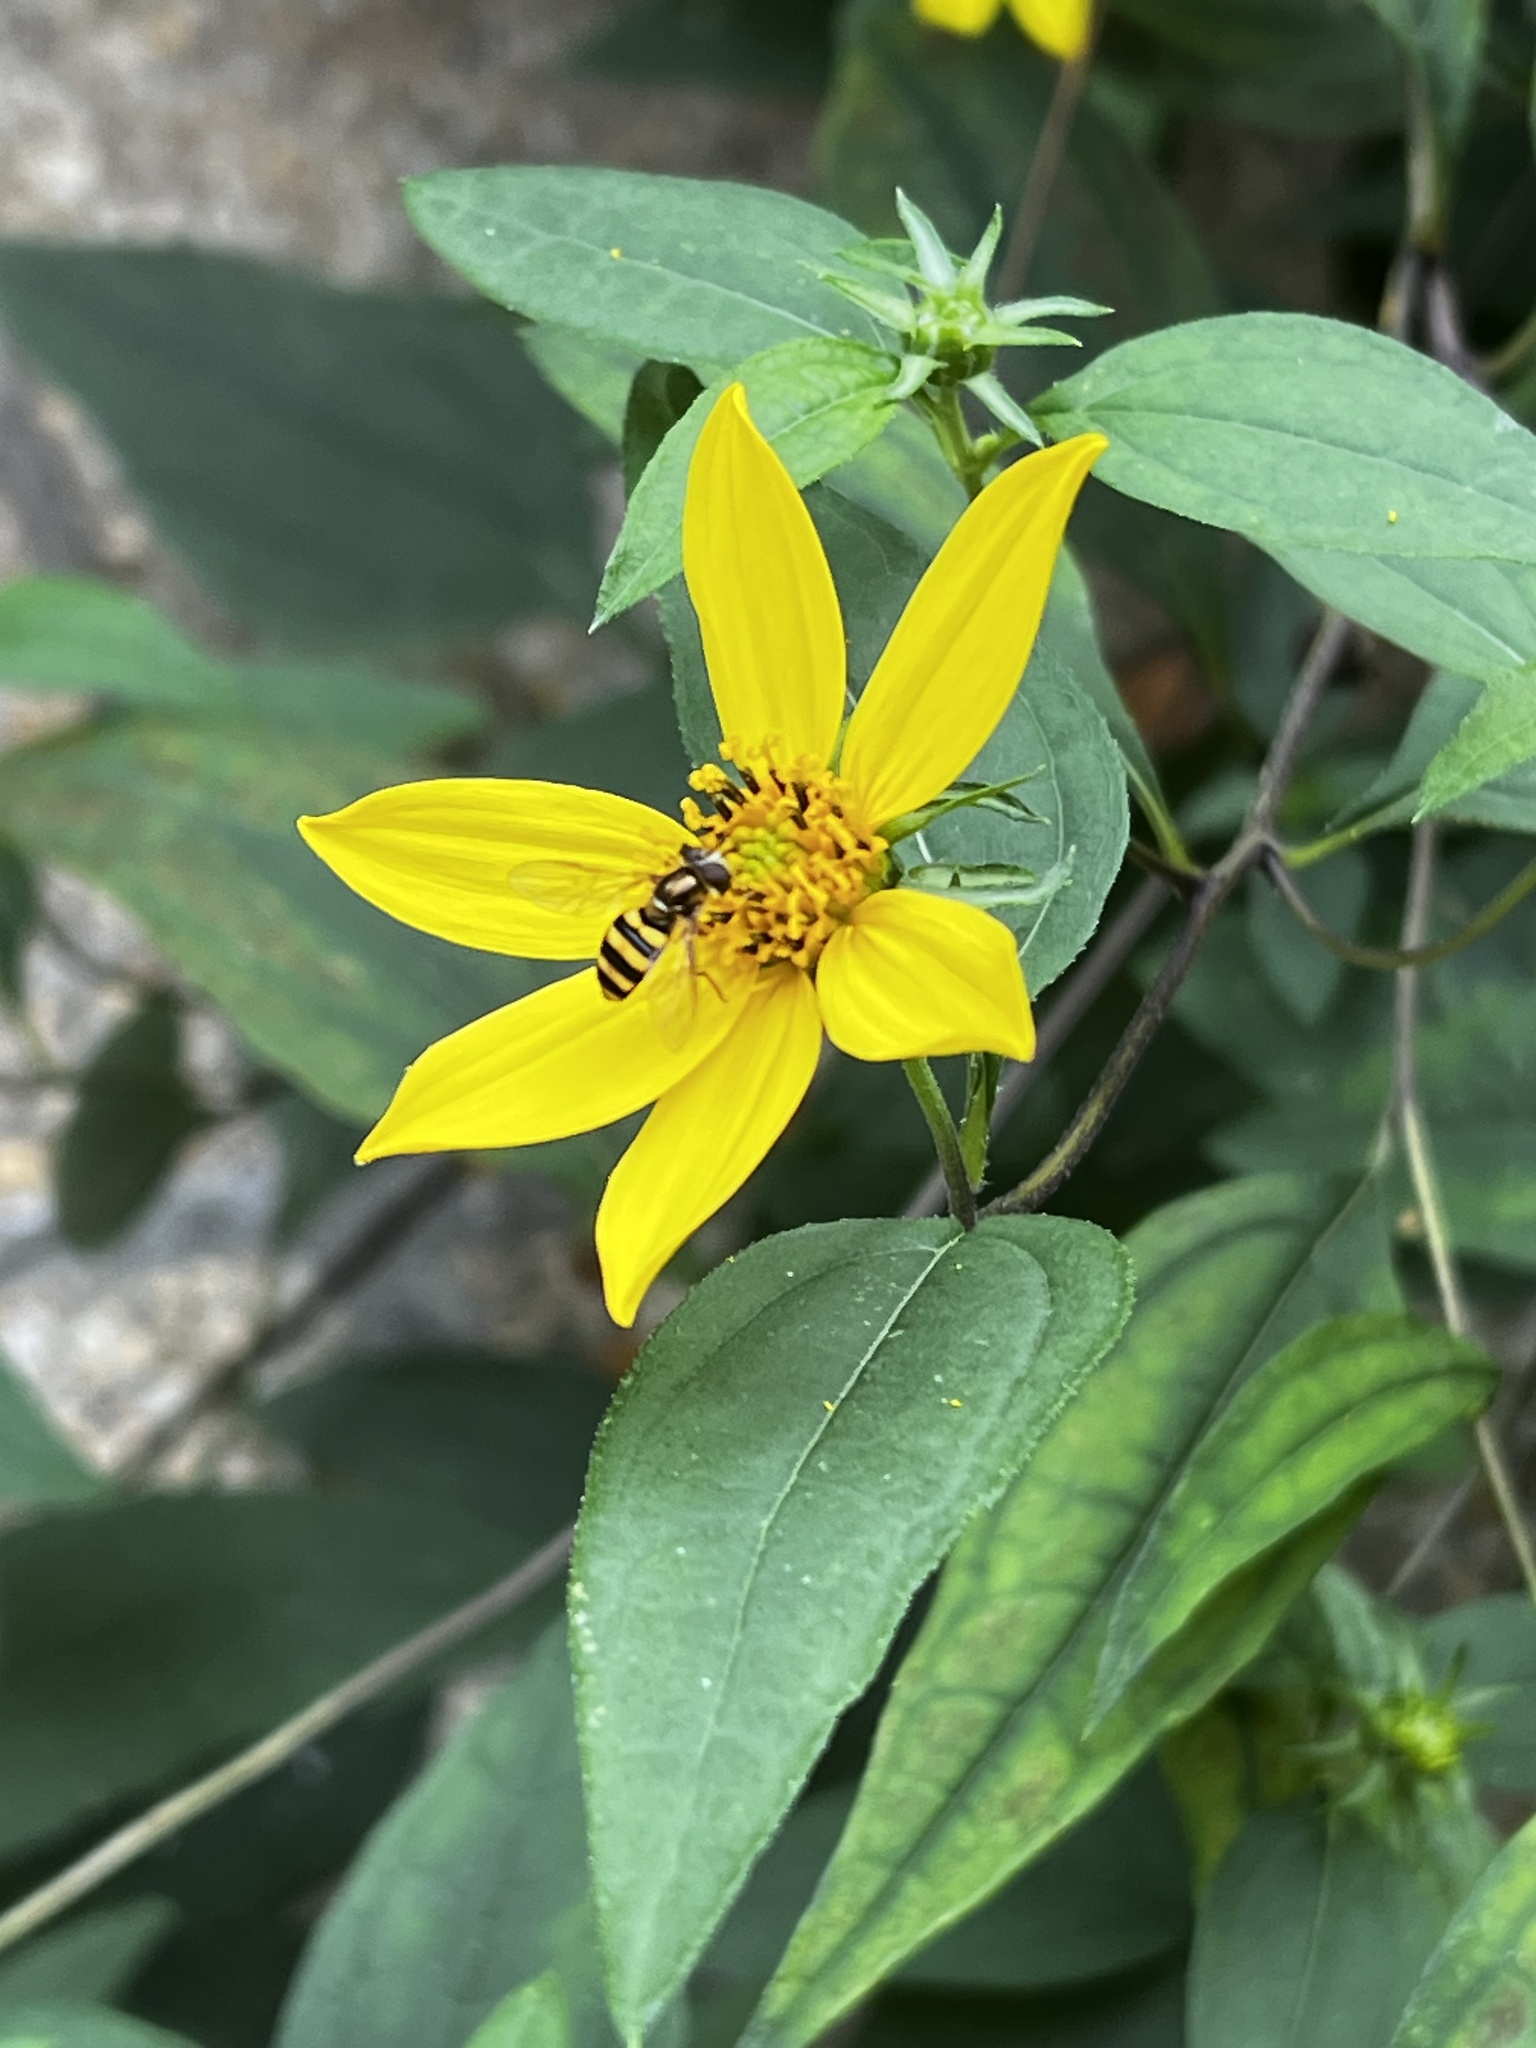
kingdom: Animalia
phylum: Arthropoda
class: Insecta
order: Diptera
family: Syrphidae
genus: Eupeodes
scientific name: Eupeodes
